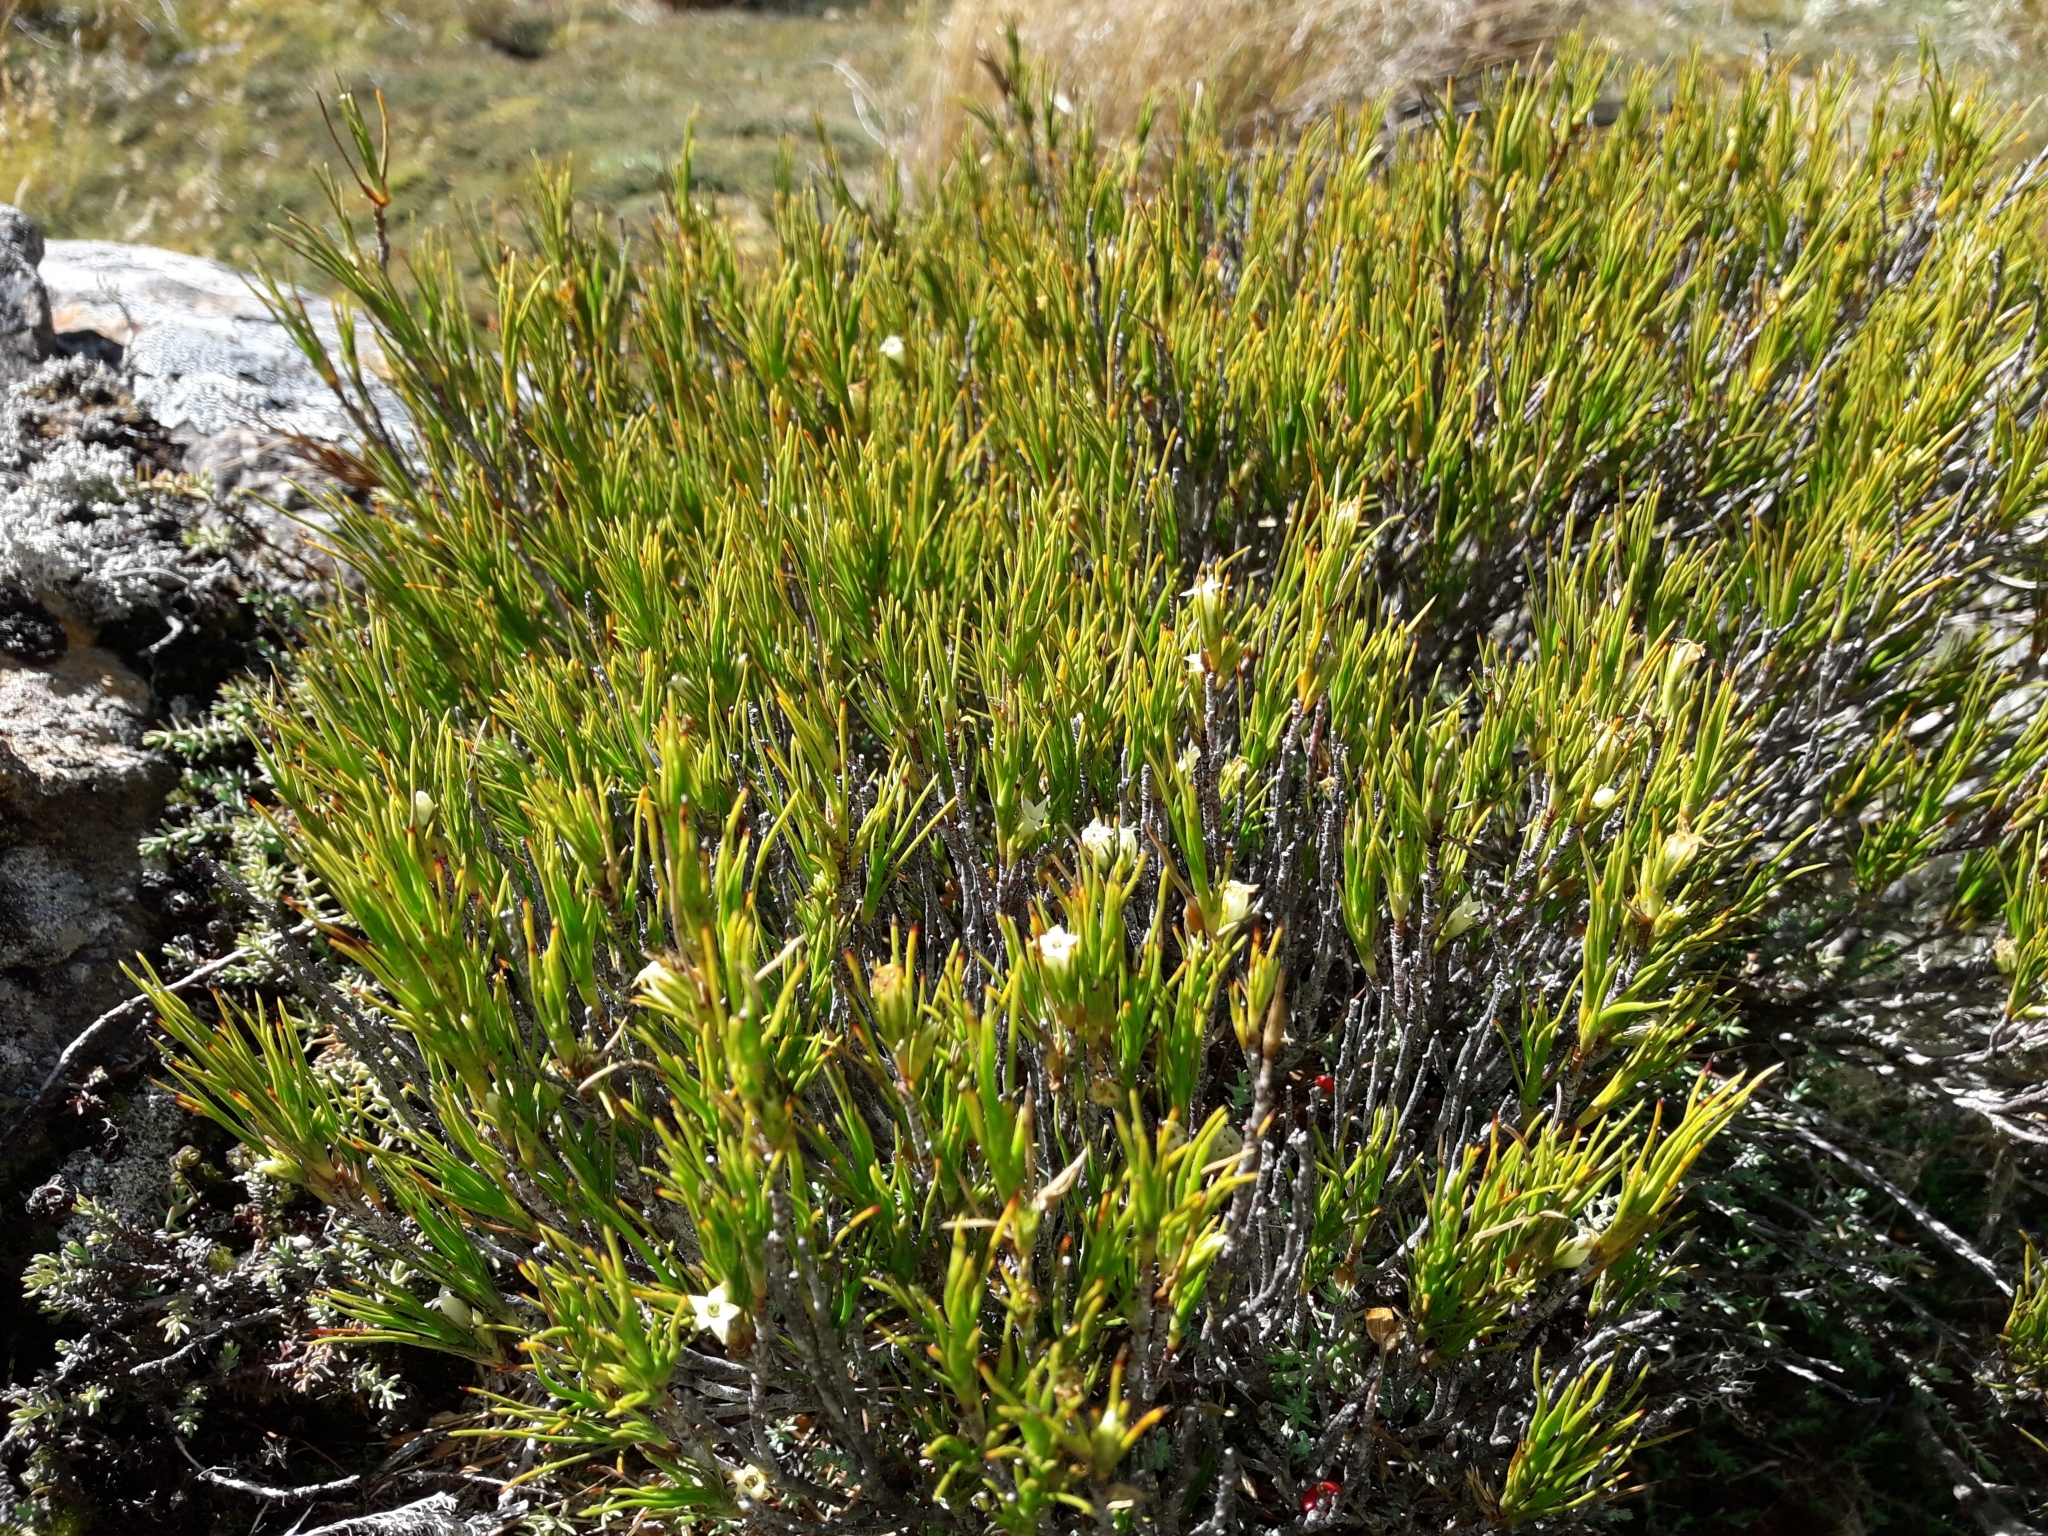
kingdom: Plantae
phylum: Tracheophyta
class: Magnoliopsida
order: Ericales
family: Ericaceae
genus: Dracophyllum
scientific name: Dracophyllum rosmarinifolium
